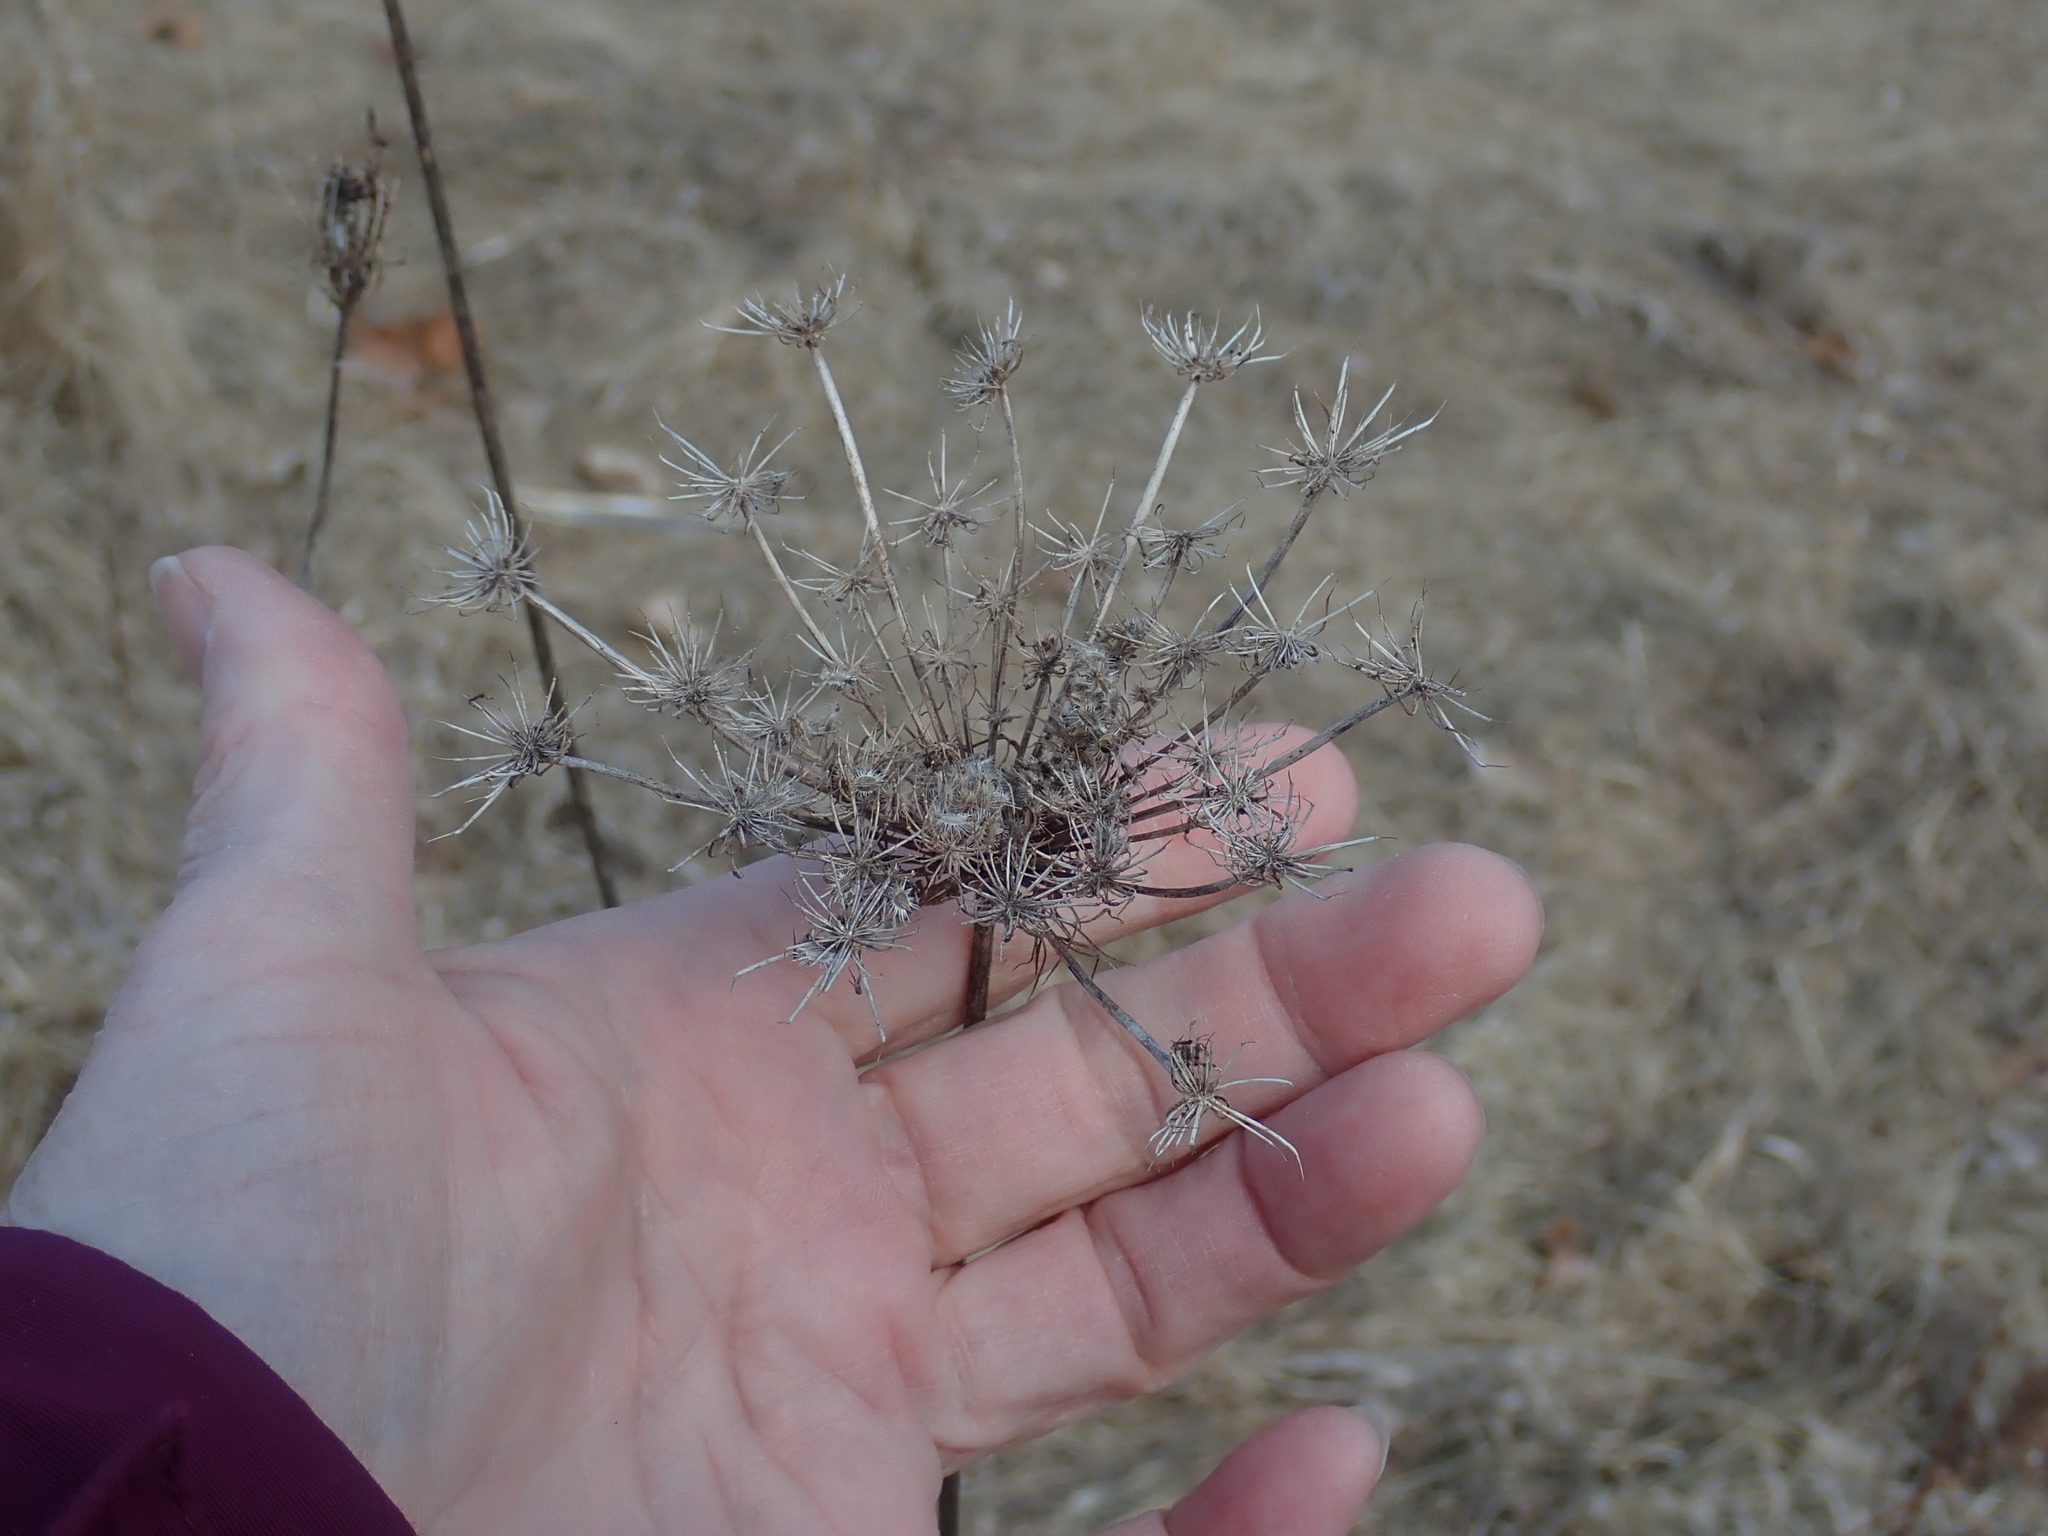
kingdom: Plantae
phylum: Tracheophyta
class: Magnoliopsida
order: Apiales
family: Apiaceae
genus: Daucus
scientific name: Daucus carota
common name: Wild carrot
